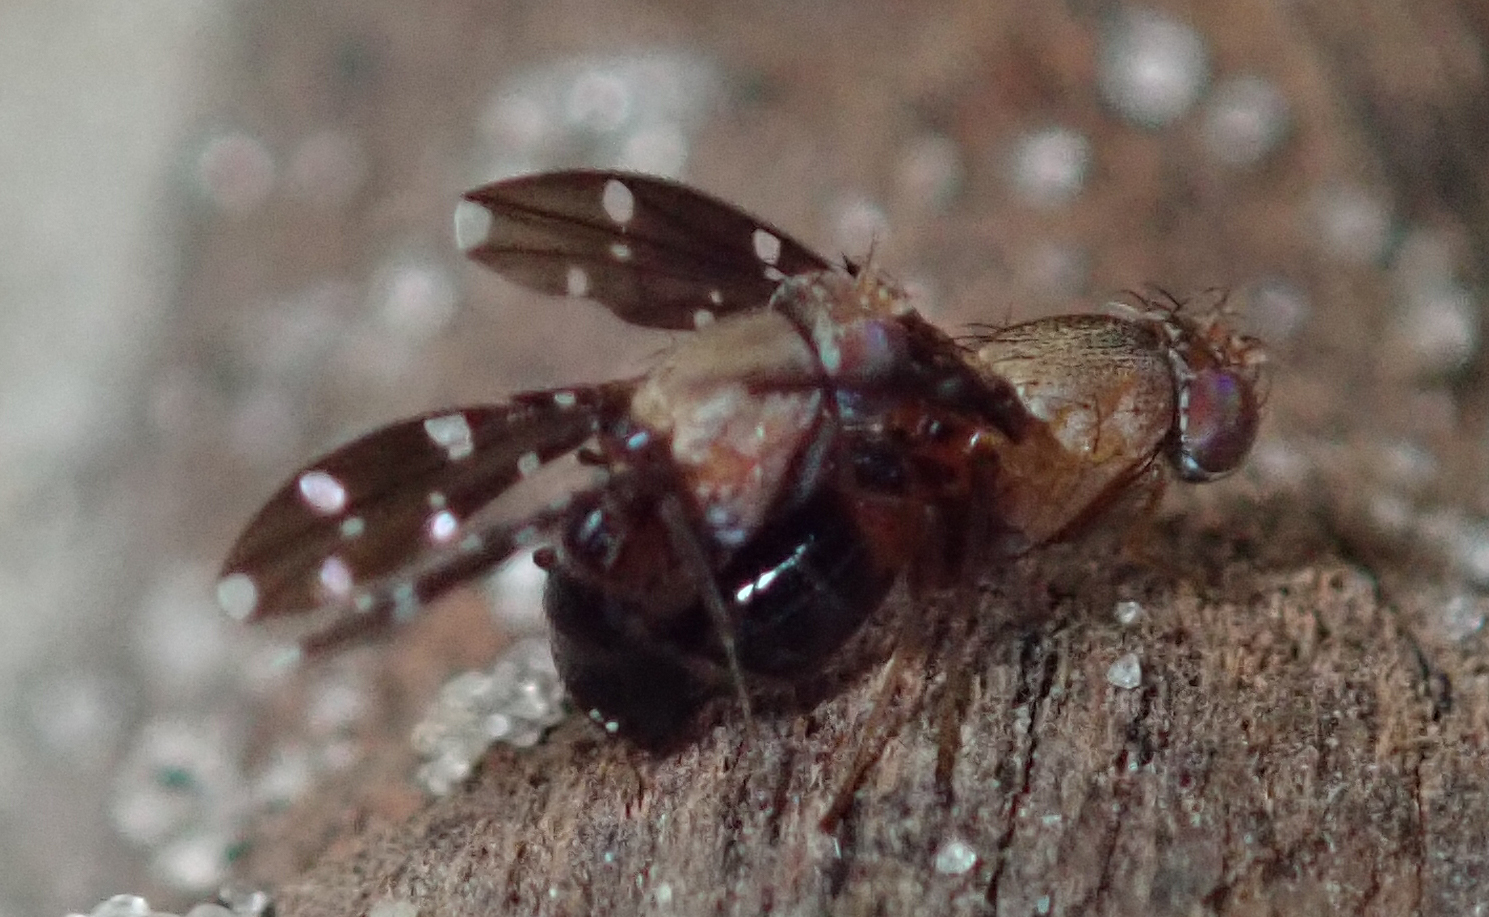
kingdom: Animalia
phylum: Arthropoda
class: Insecta
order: Diptera
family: Ephydridae
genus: Actocetor
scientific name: Actocetor decemugttatus
